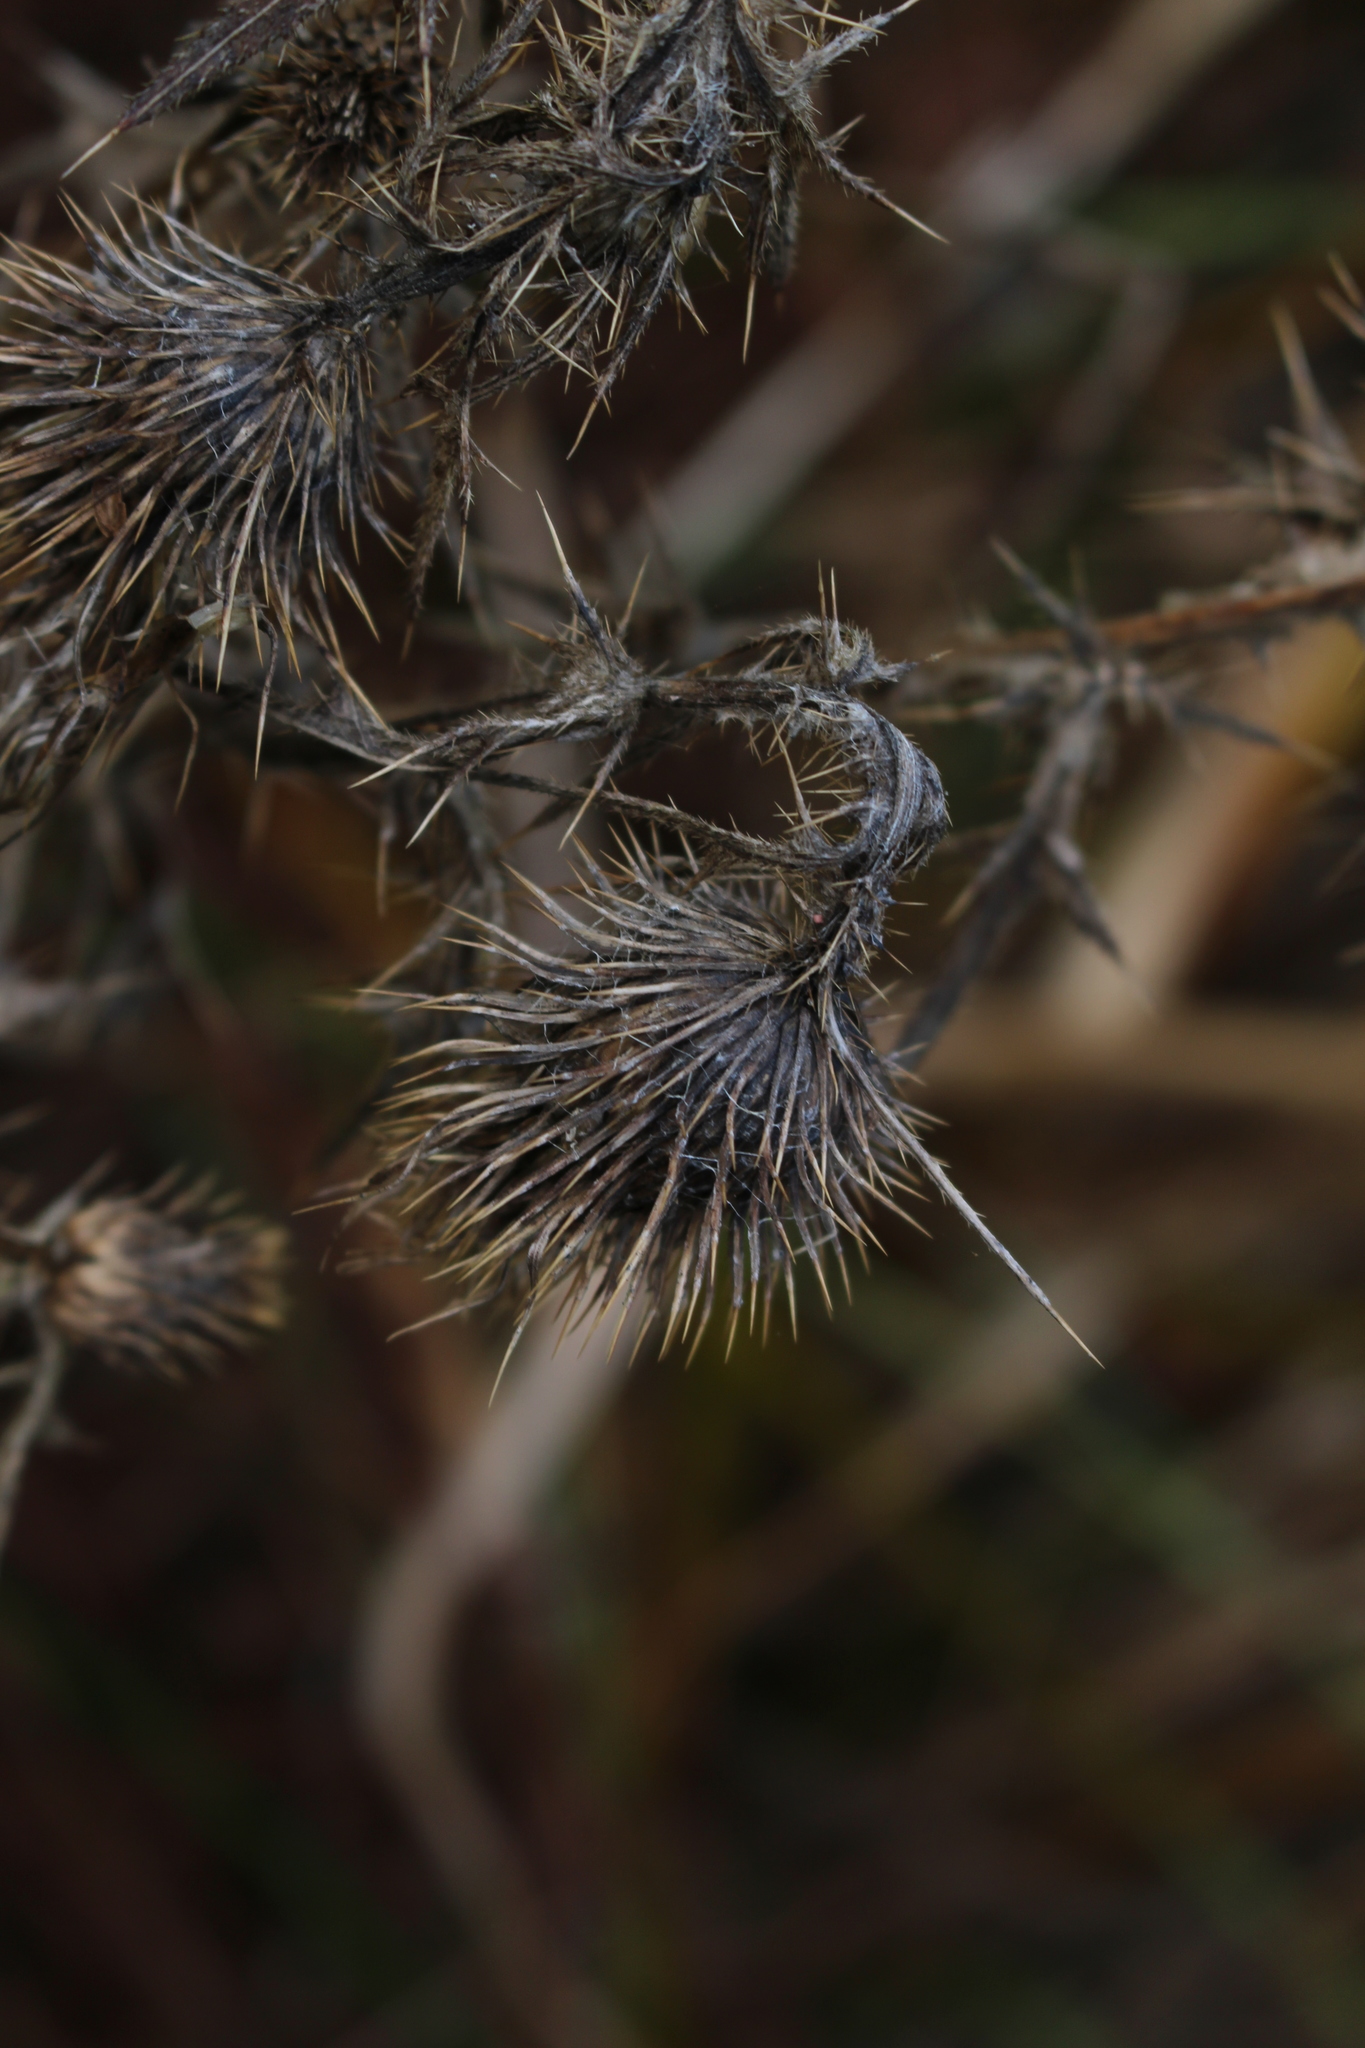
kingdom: Plantae
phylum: Tracheophyta
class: Magnoliopsida
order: Asterales
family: Asteraceae
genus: Cirsium
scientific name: Cirsium vulgare
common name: Bull thistle
